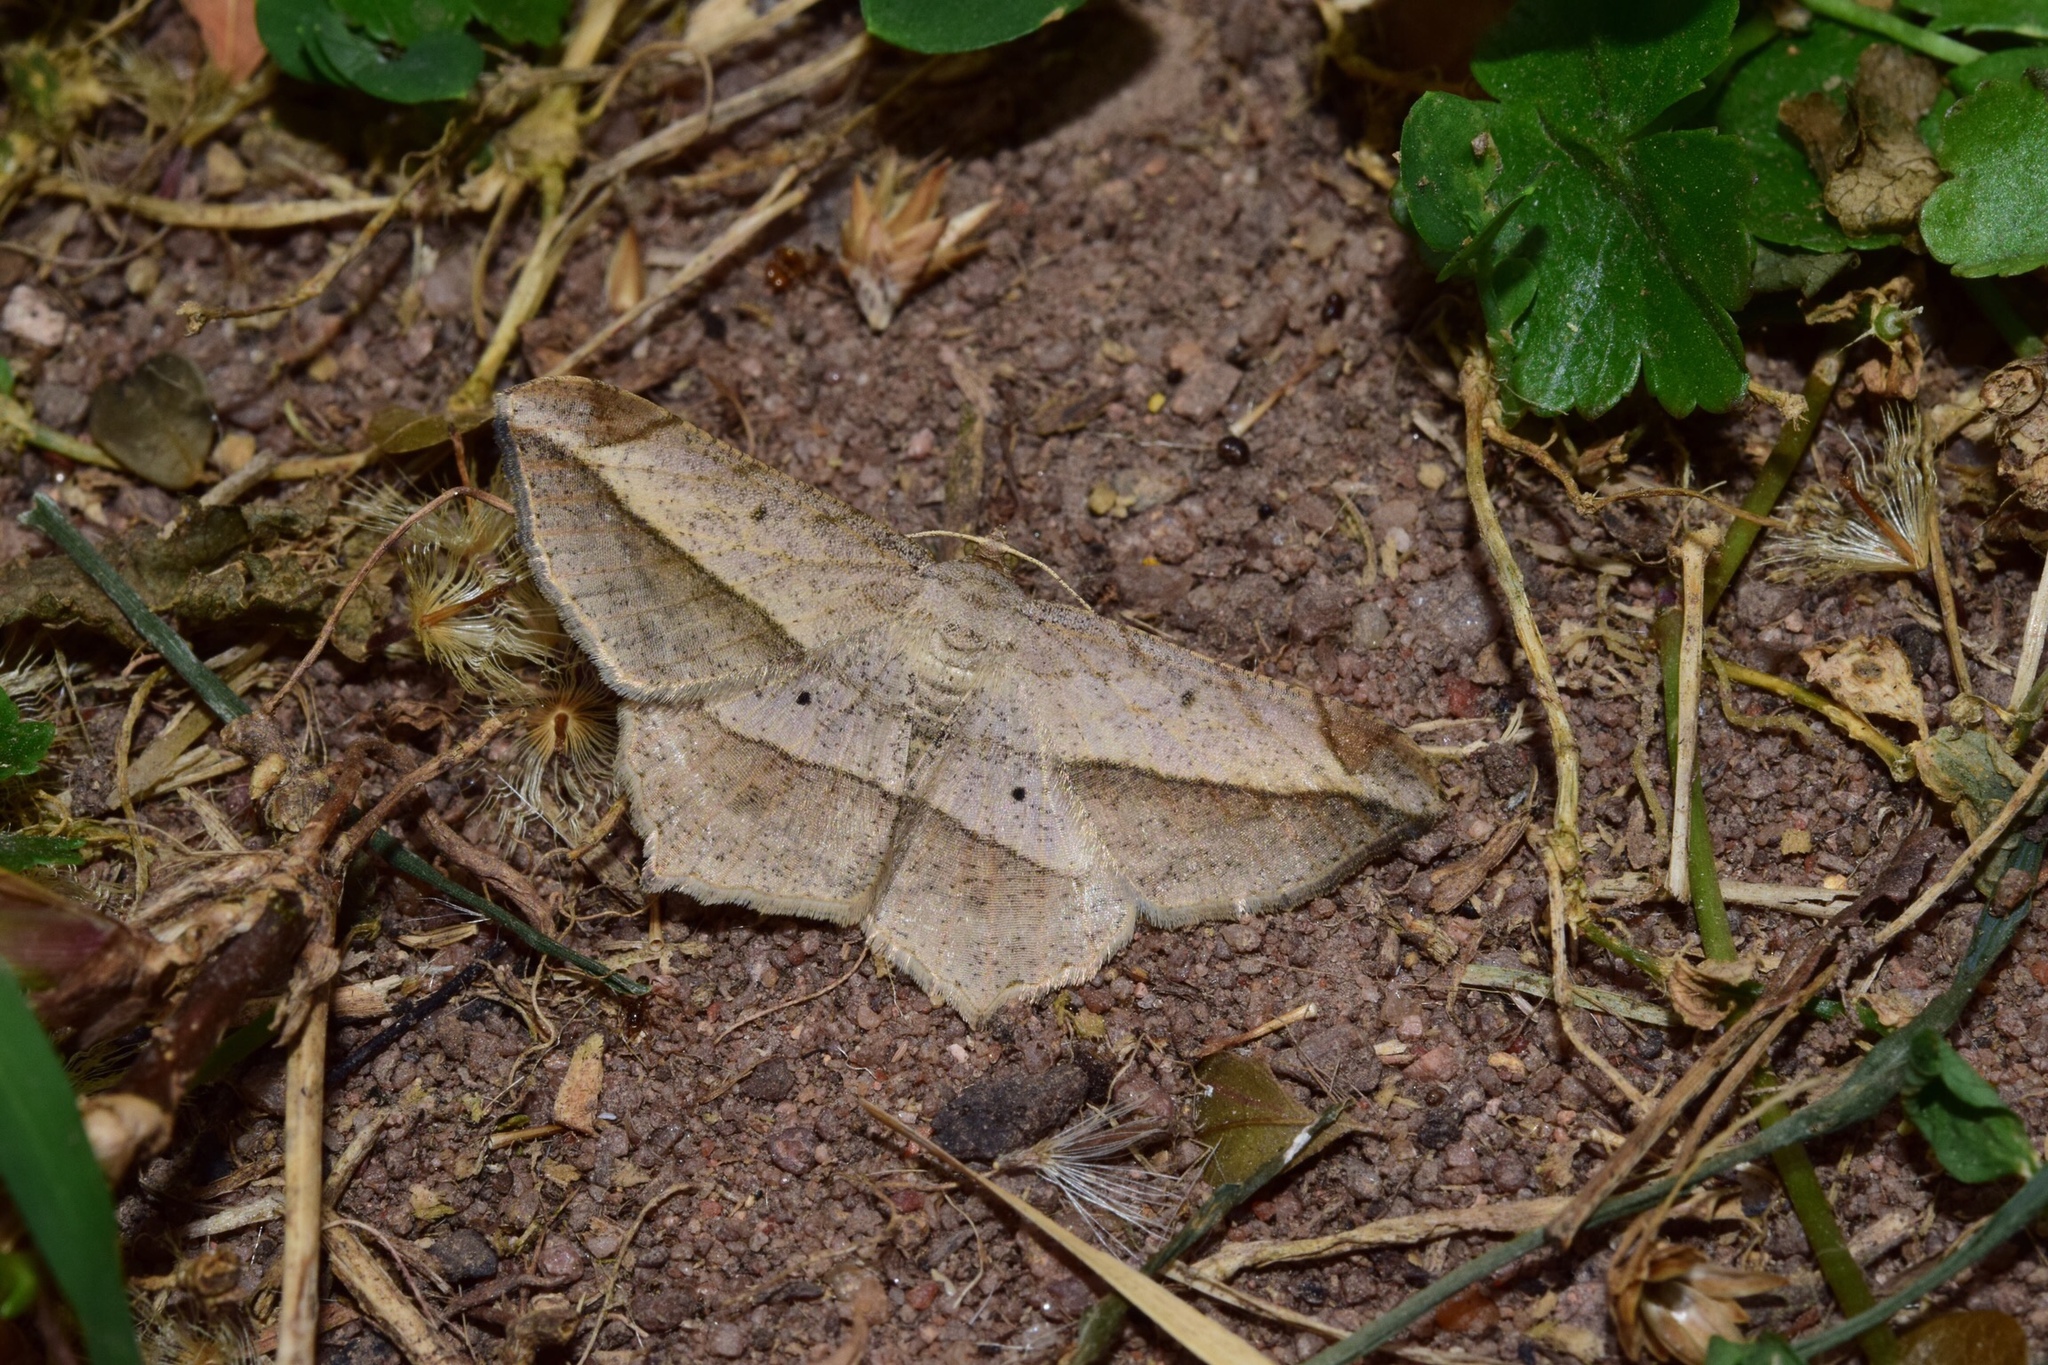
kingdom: Animalia
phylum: Arthropoda
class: Insecta
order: Lepidoptera
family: Geometridae
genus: Chiasmia
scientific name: Chiasmia simplicilinea
